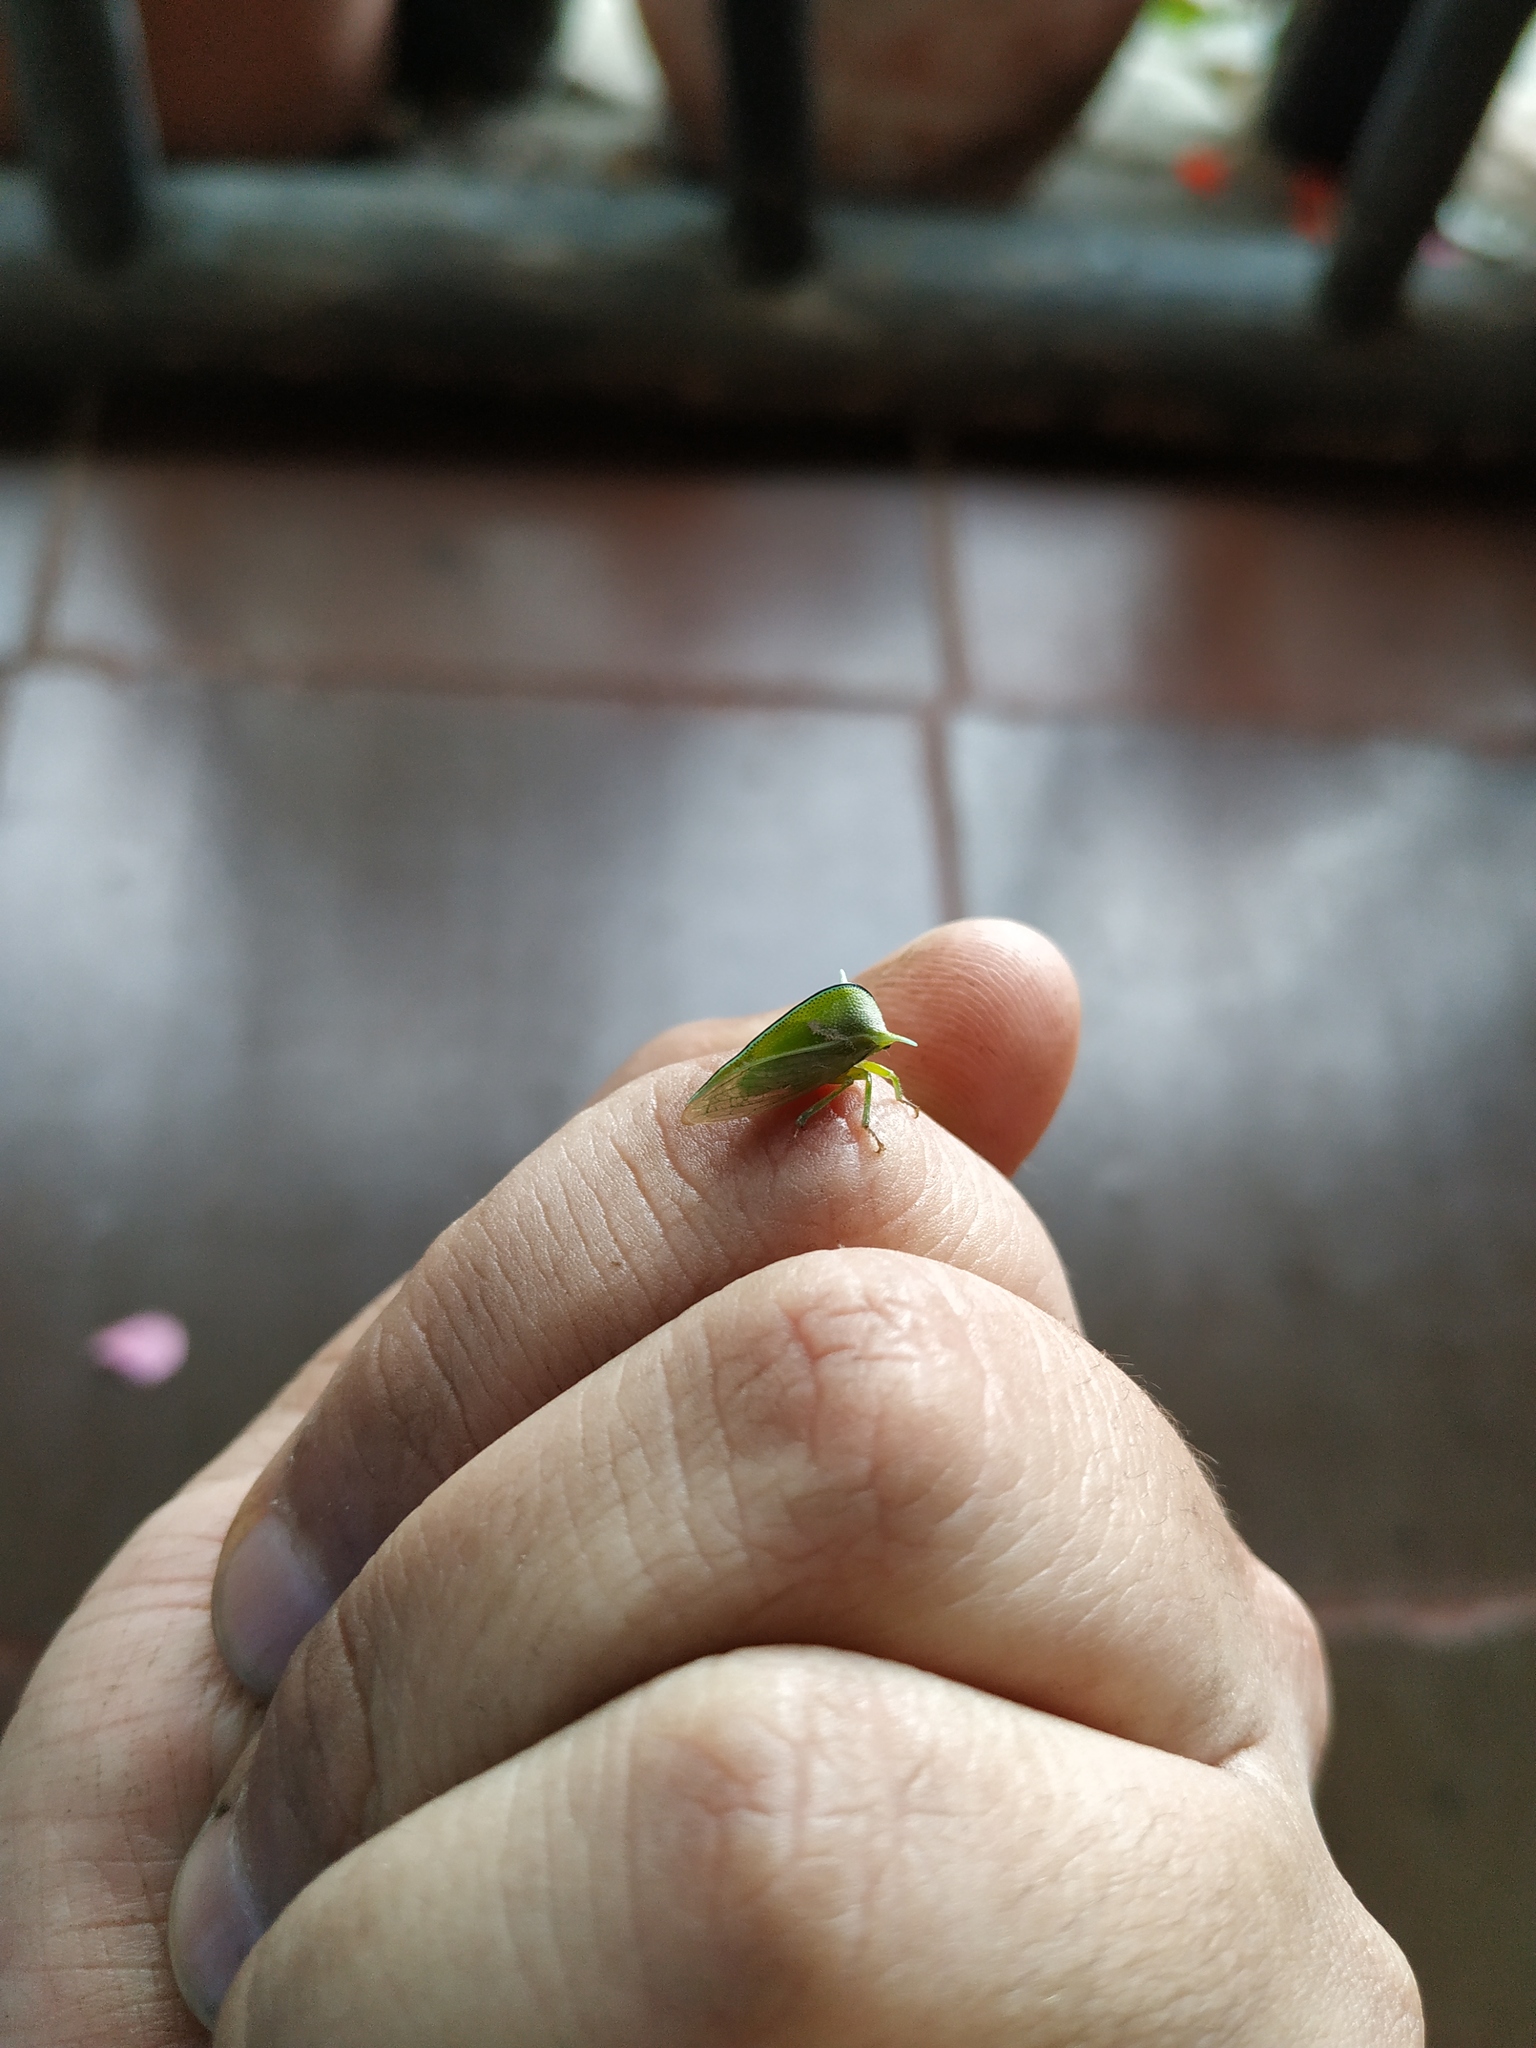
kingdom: Animalia
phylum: Arthropoda
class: Insecta
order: Hemiptera
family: Membracidae
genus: Alchisme
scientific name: Alchisme inermis
